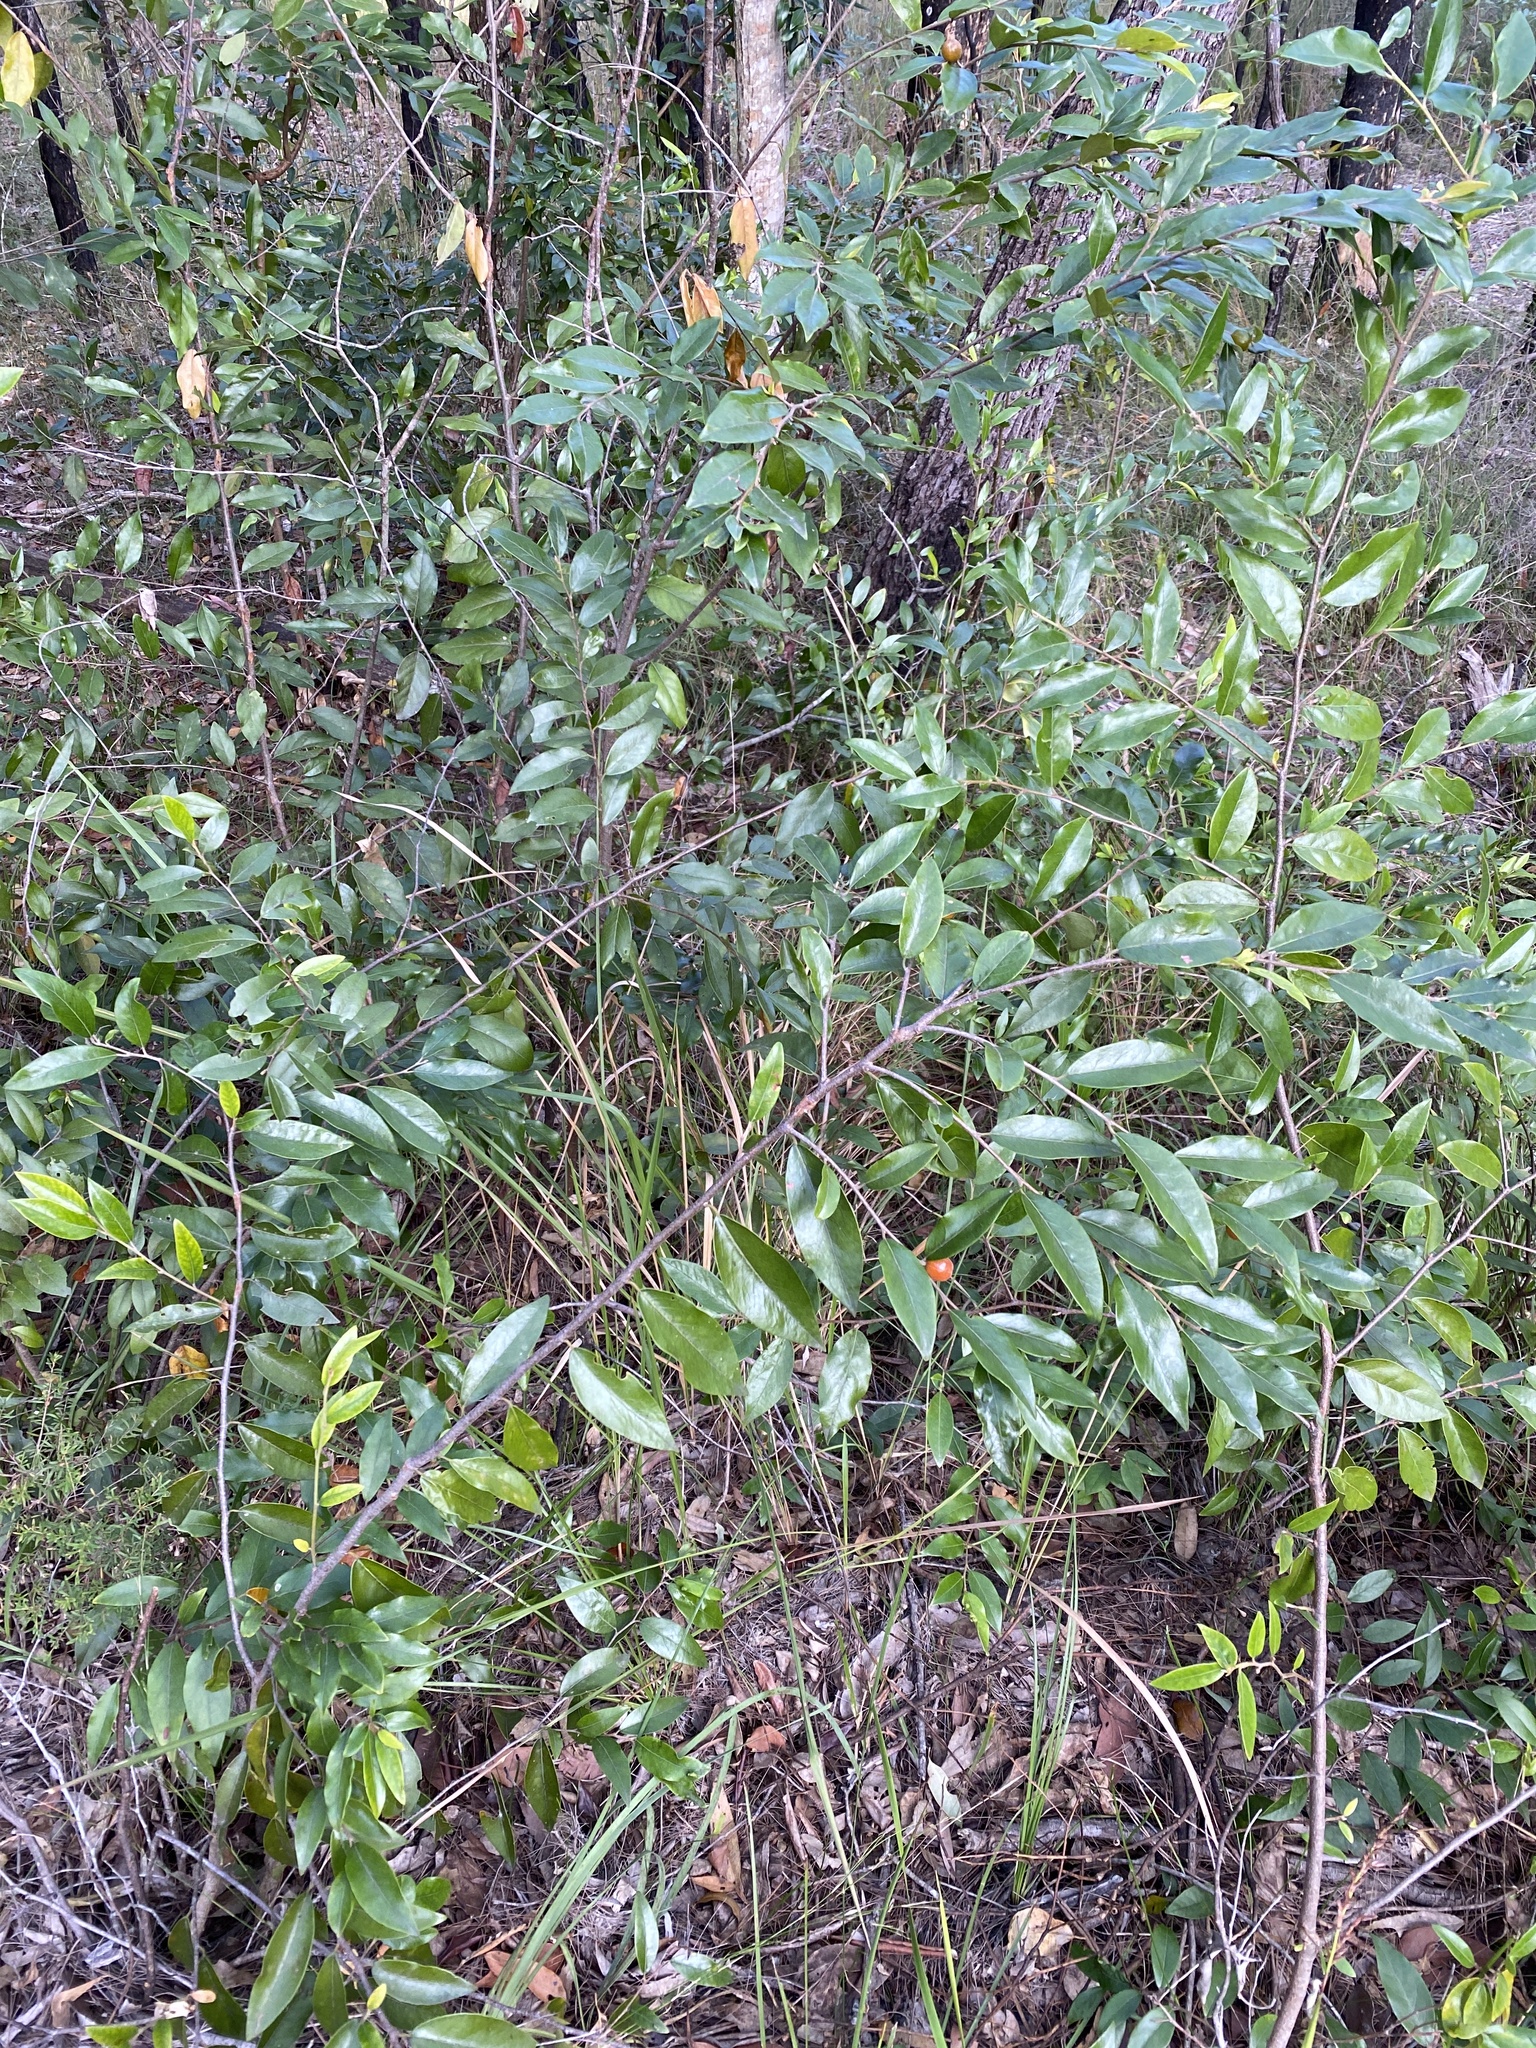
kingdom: Plantae
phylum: Tracheophyta
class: Magnoliopsida
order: Malpighiales
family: Picrodendraceae
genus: Petalostigma
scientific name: Petalostigma triloculare
